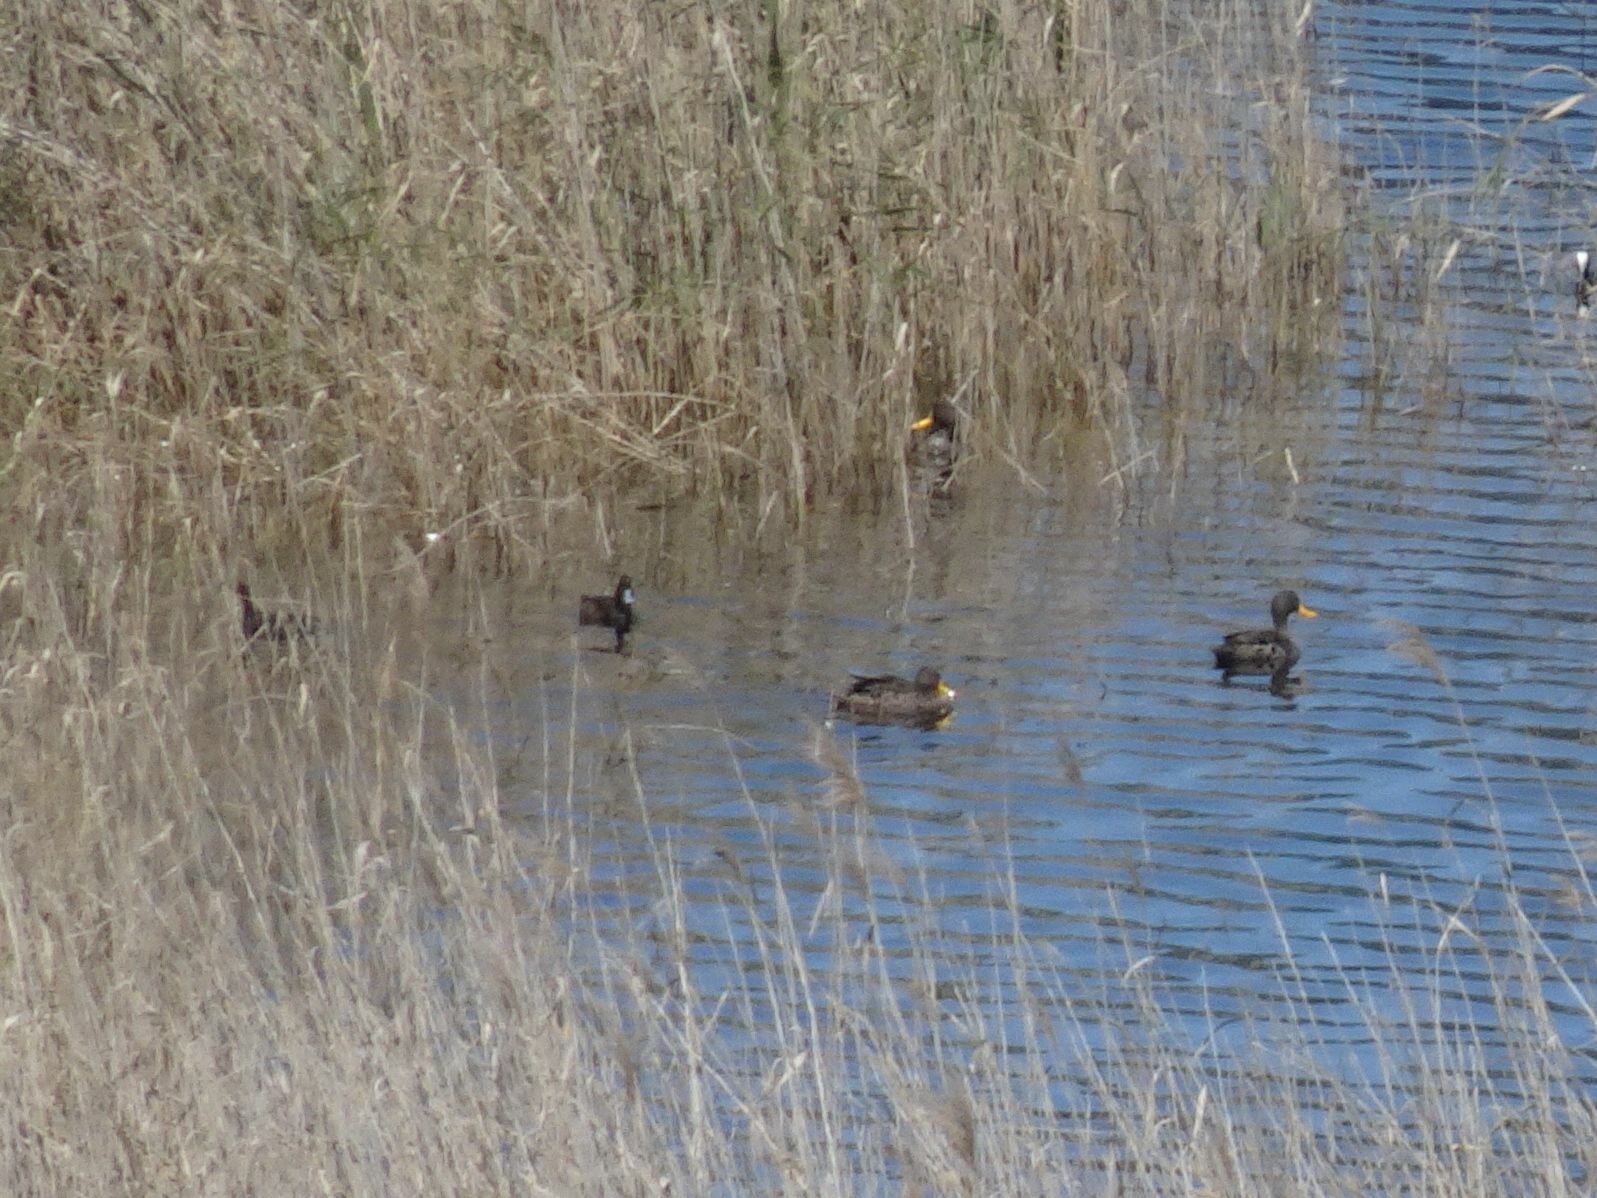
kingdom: Animalia
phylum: Chordata
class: Aves
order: Anseriformes
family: Anatidae
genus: Netta
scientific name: Netta erythrophthalma
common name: Southern pochard
